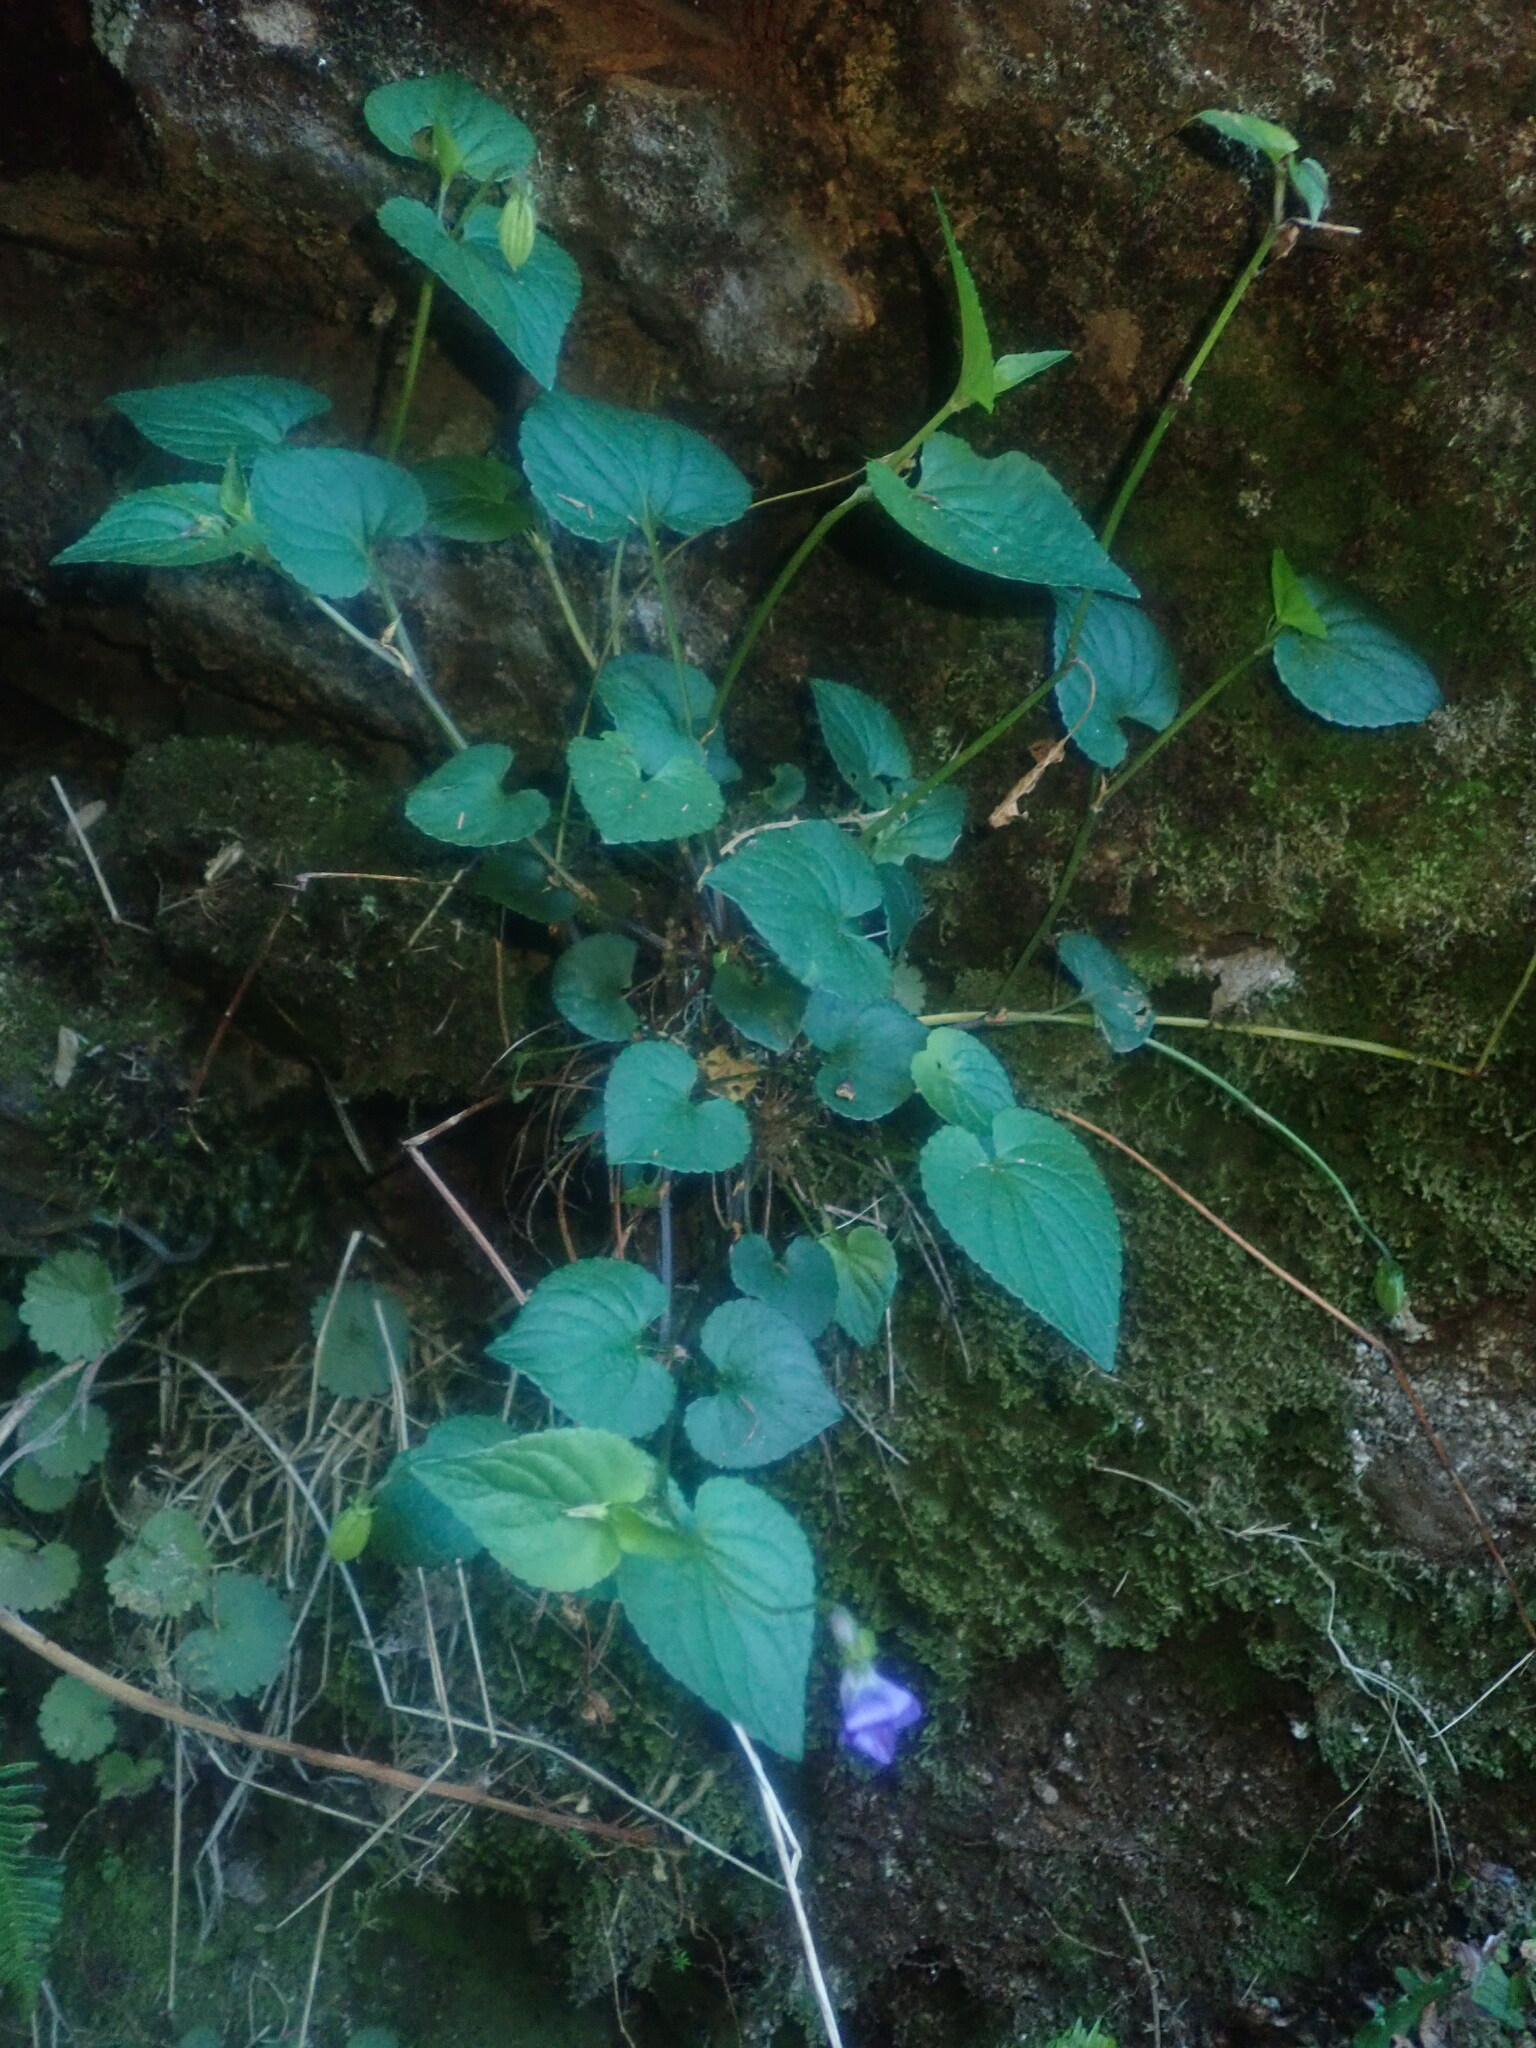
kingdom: Plantae
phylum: Tracheophyta
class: Magnoliopsida
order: Malpighiales
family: Violaceae
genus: Viola
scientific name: Viola riviniana
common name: Common dog-violet
